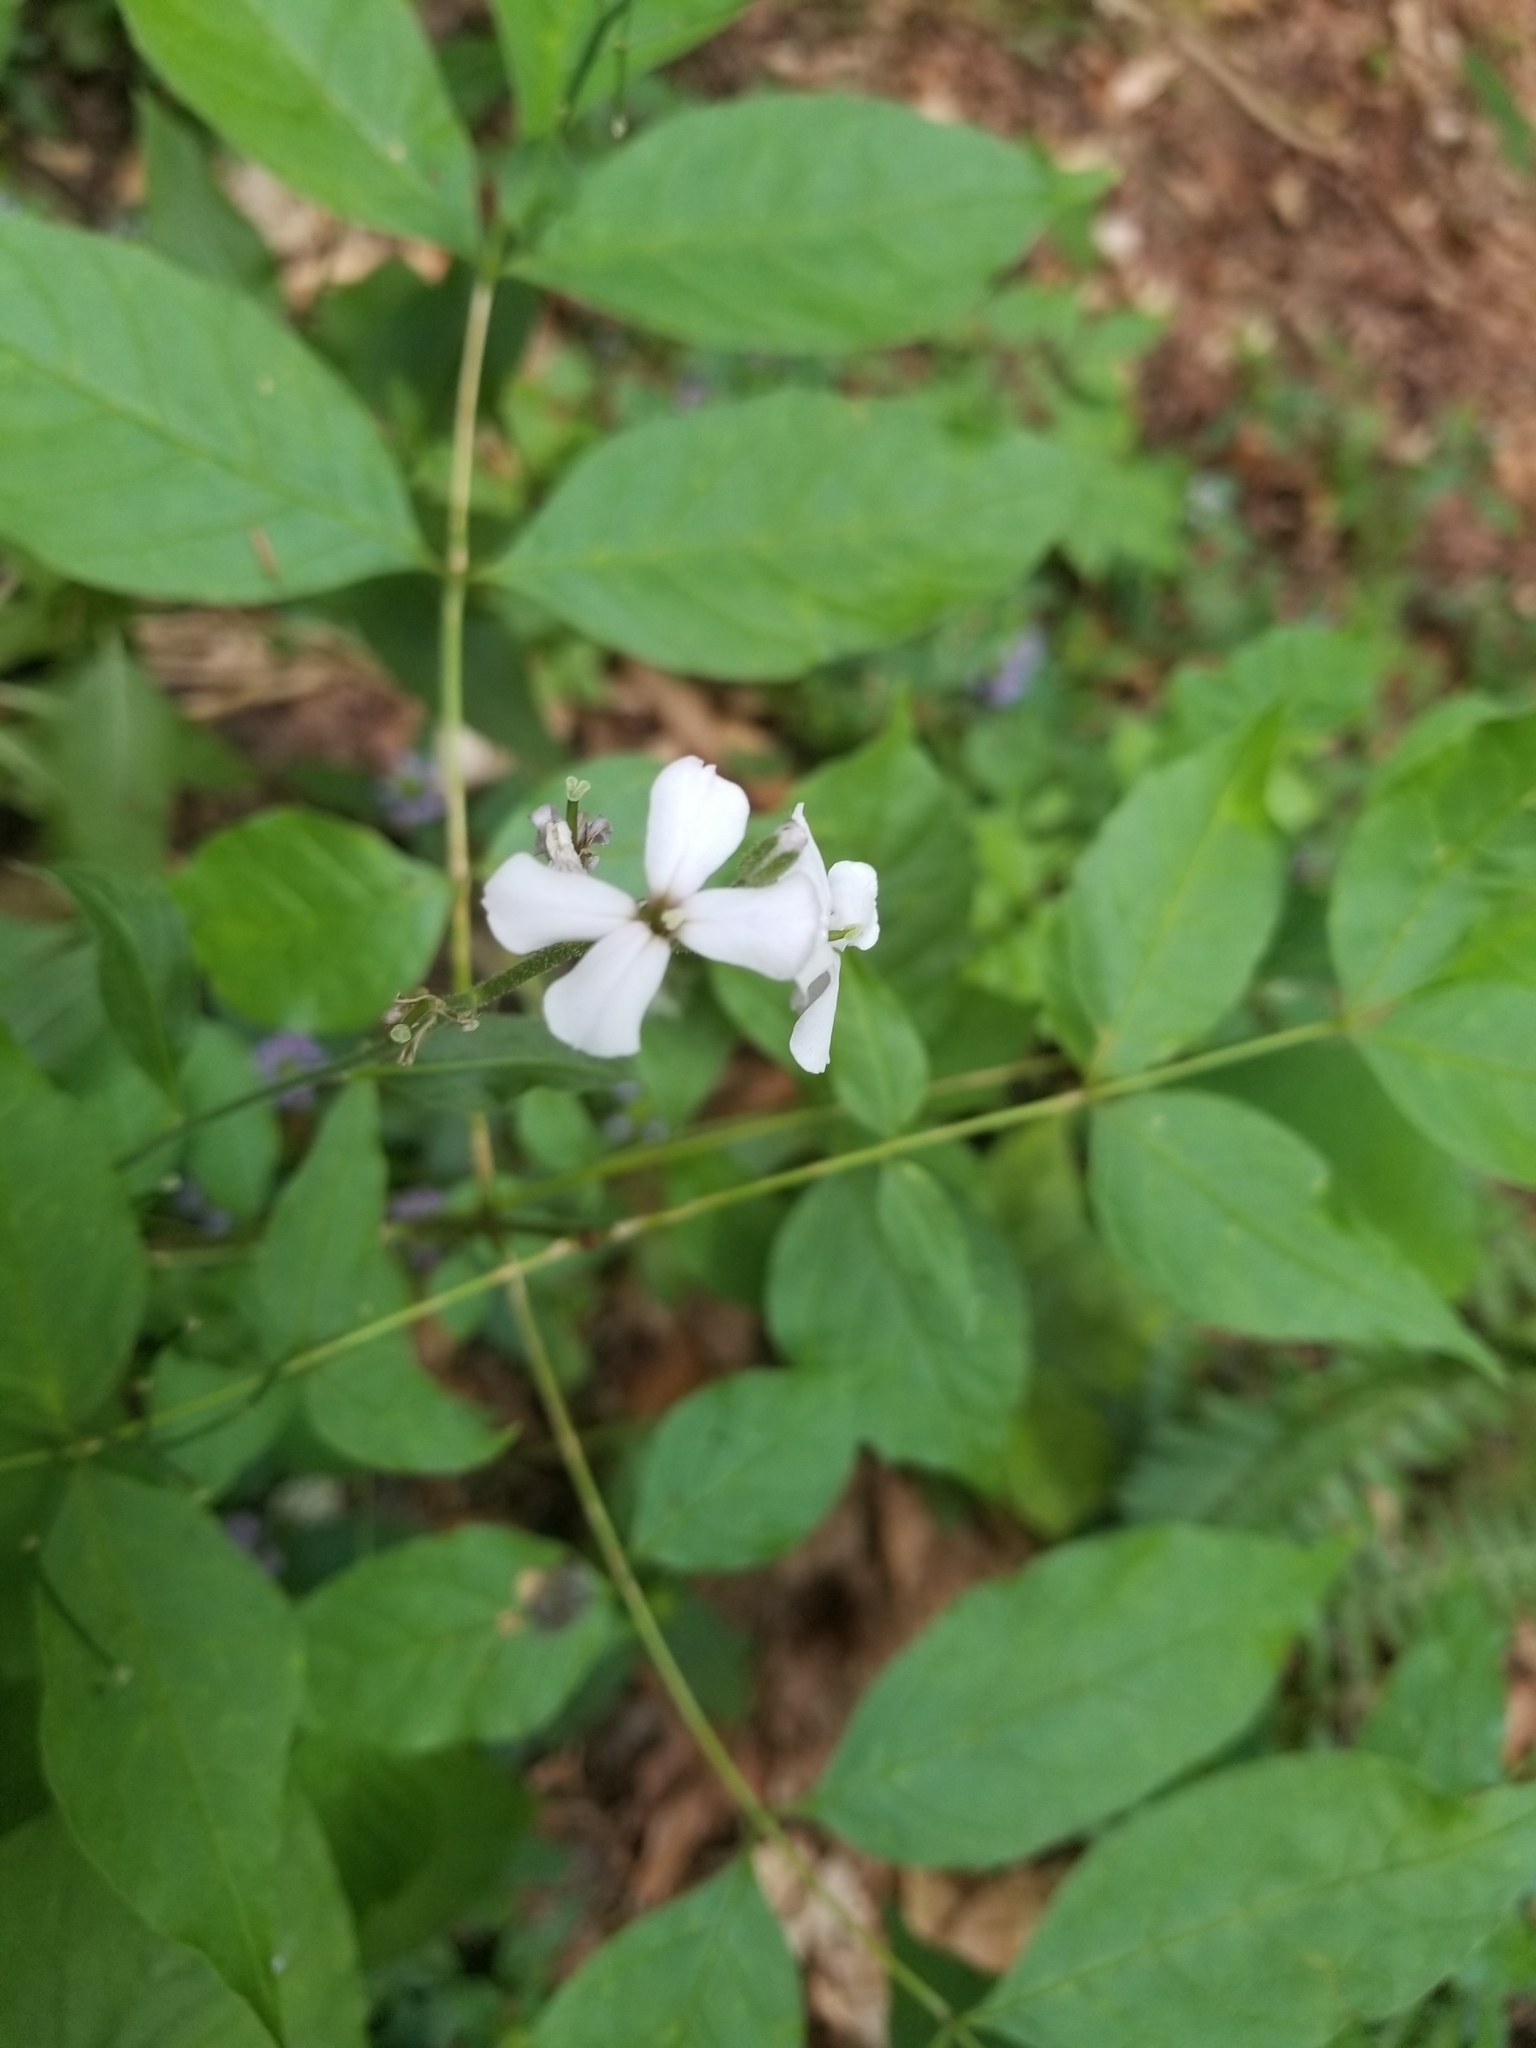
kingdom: Plantae
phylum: Tracheophyta
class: Magnoliopsida
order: Brassicales
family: Brassicaceae
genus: Hesperis
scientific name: Hesperis matronalis
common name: Dame's-violet
